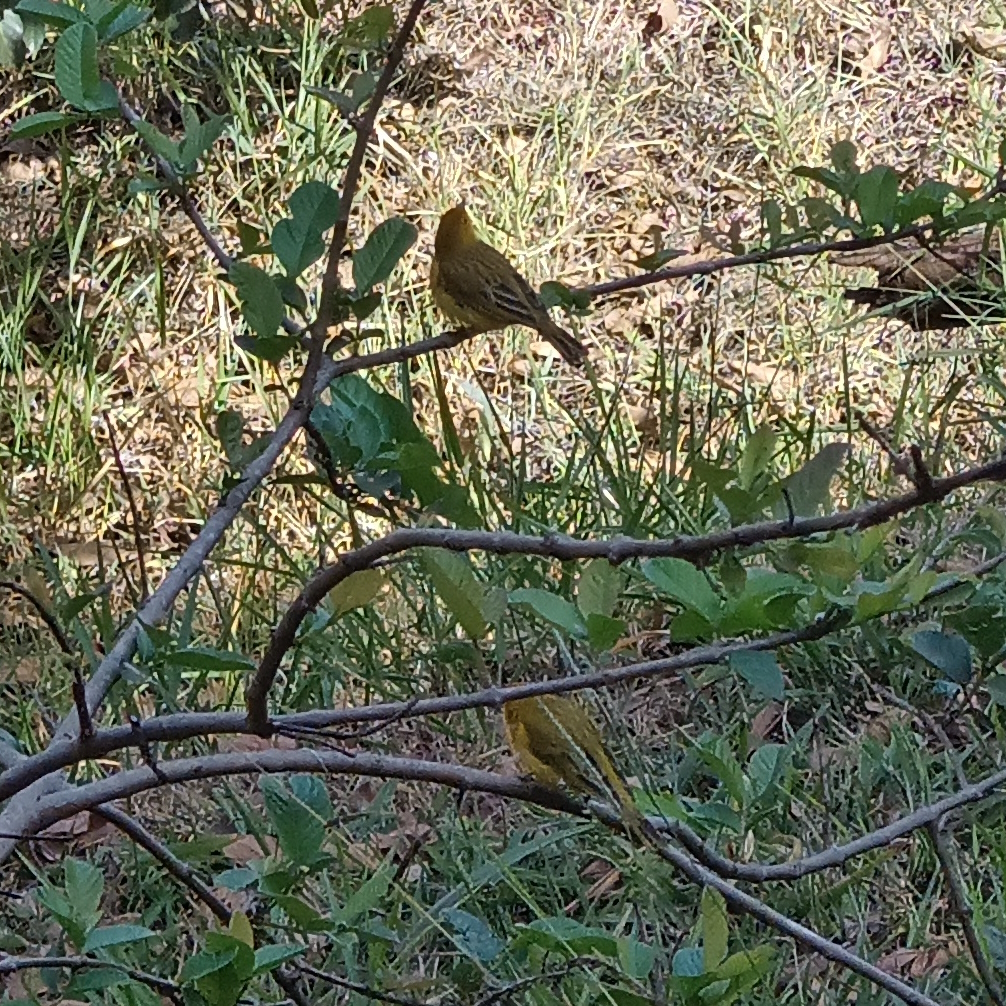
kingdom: Animalia
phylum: Chordata
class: Aves
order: Passeriformes
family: Thraupidae
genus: Sicalis
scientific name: Sicalis flaveola
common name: Saffron finch
